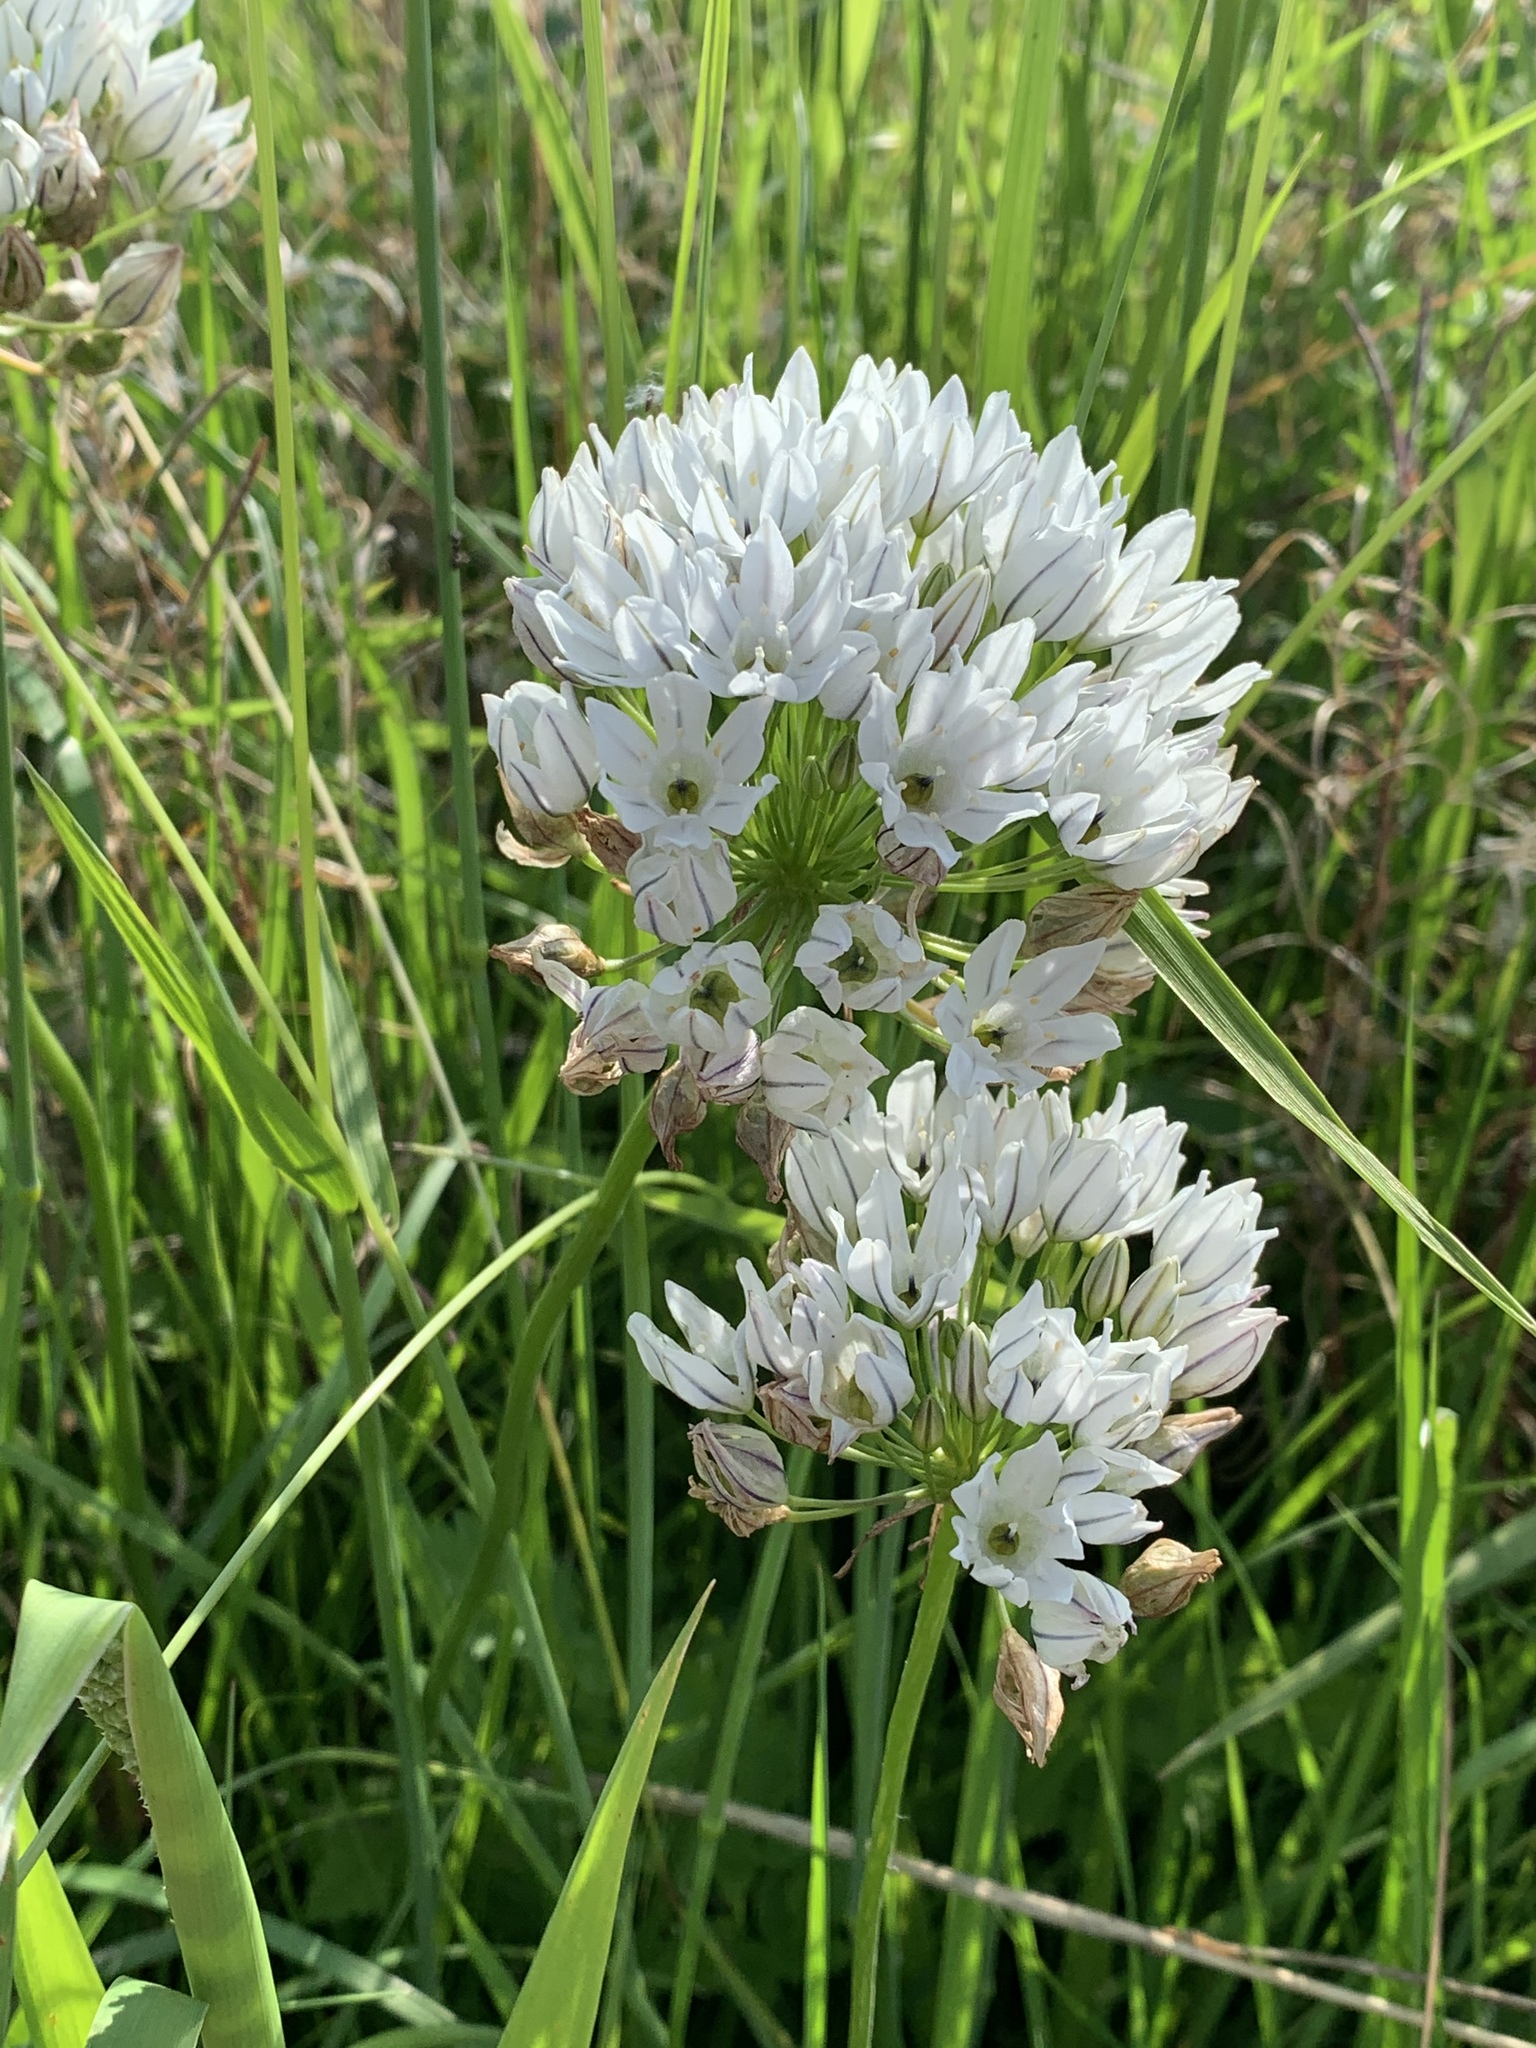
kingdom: Plantae
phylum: Tracheophyta
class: Liliopsida
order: Asparagales
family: Asparagaceae
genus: Triteleia
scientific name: Triteleia hyacinthina
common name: White brodiaea
